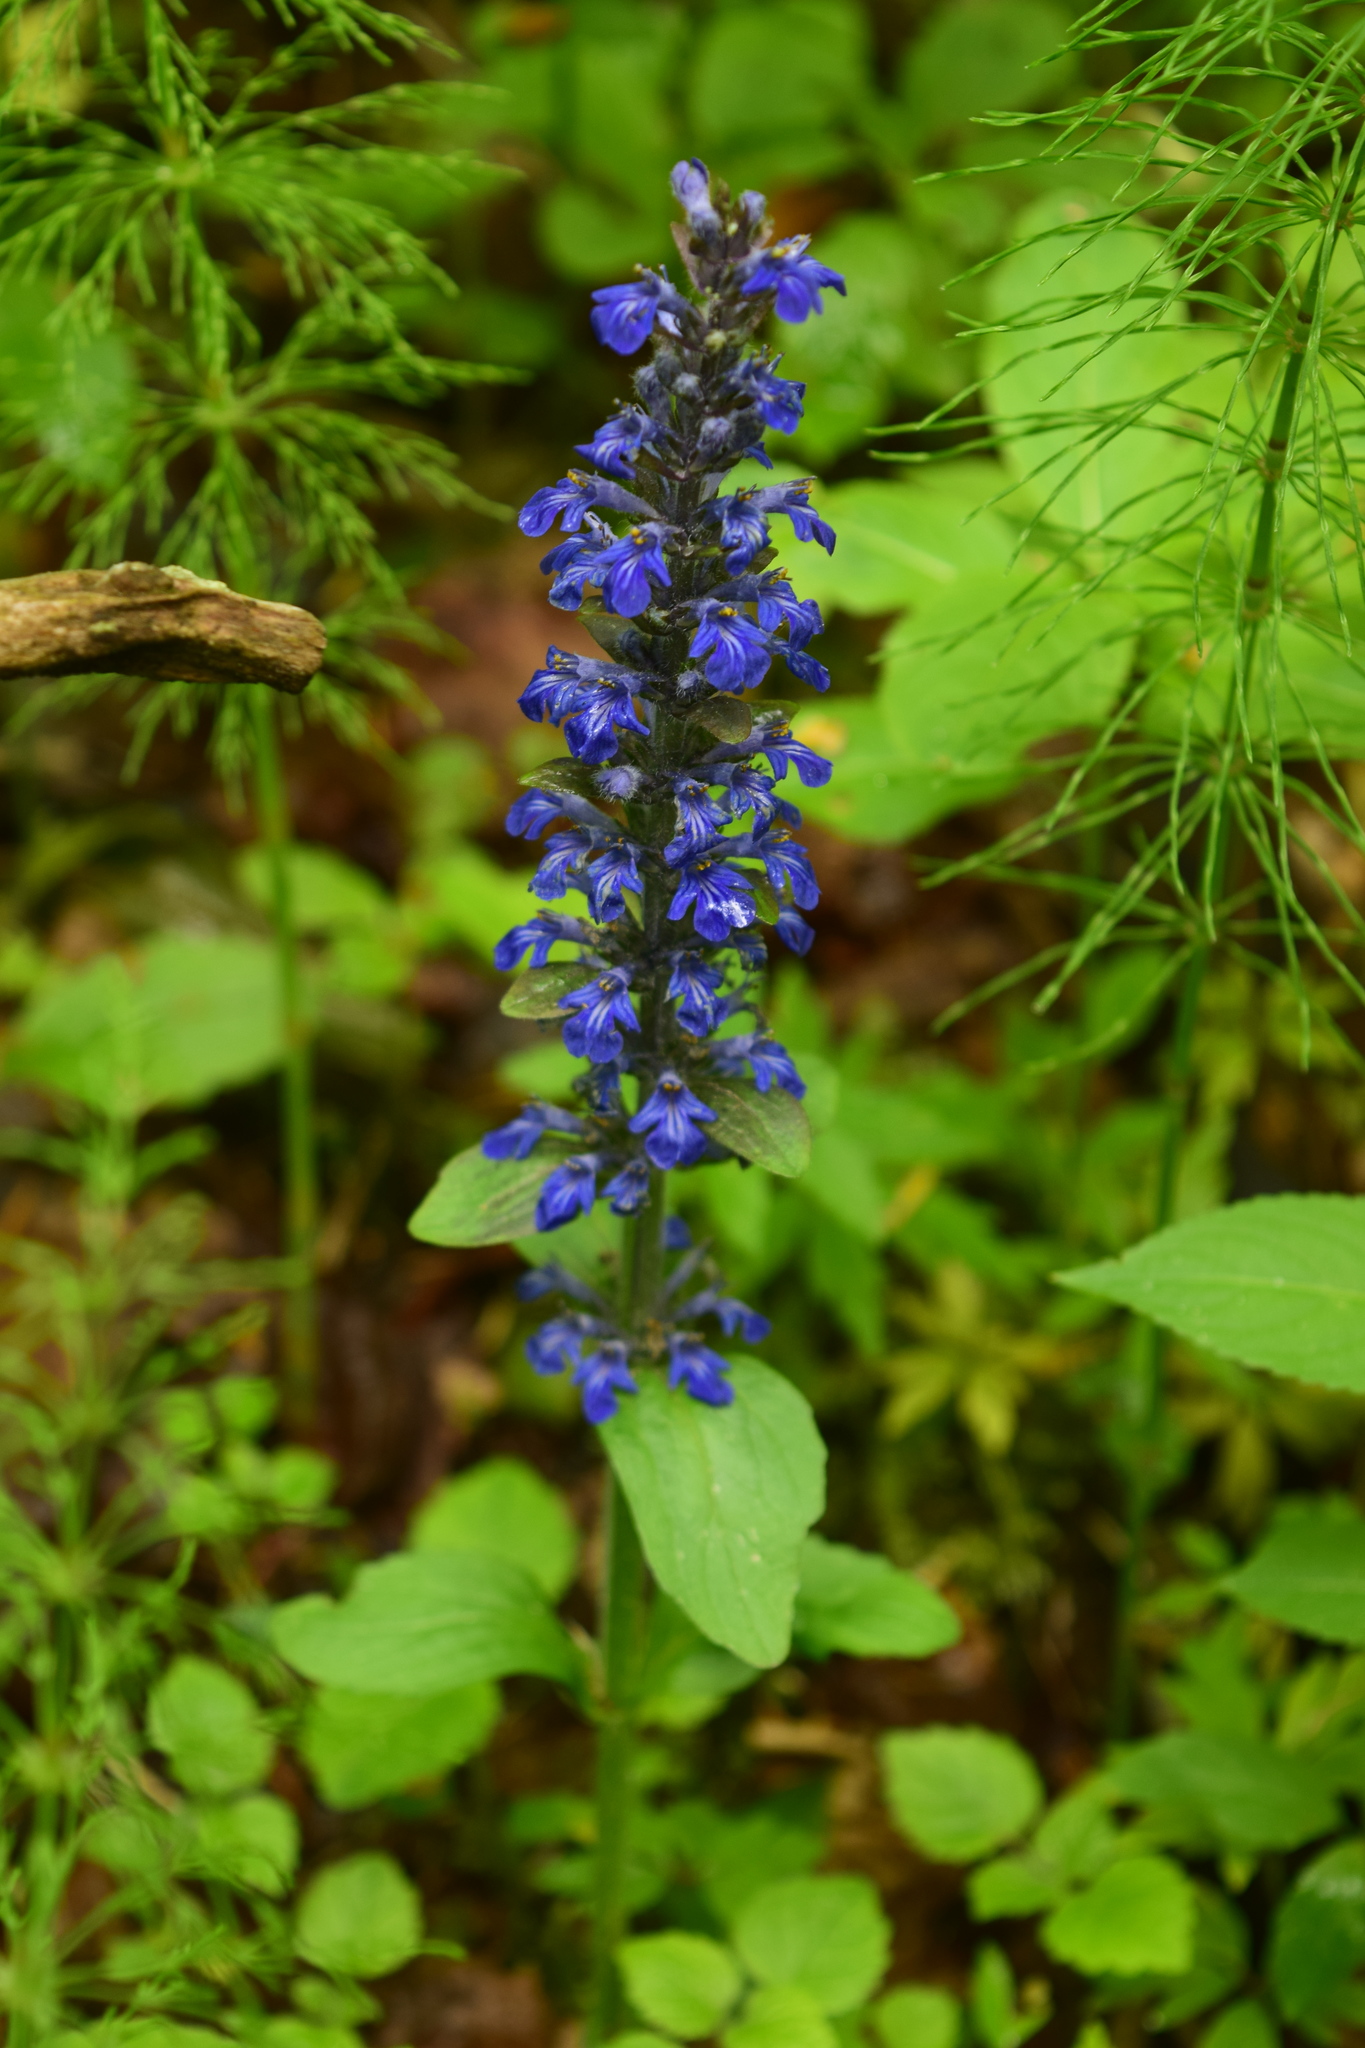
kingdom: Plantae
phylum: Tracheophyta
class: Magnoliopsida
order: Lamiales
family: Lamiaceae
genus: Ajuga
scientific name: Ajuga reptans
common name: Bugle
